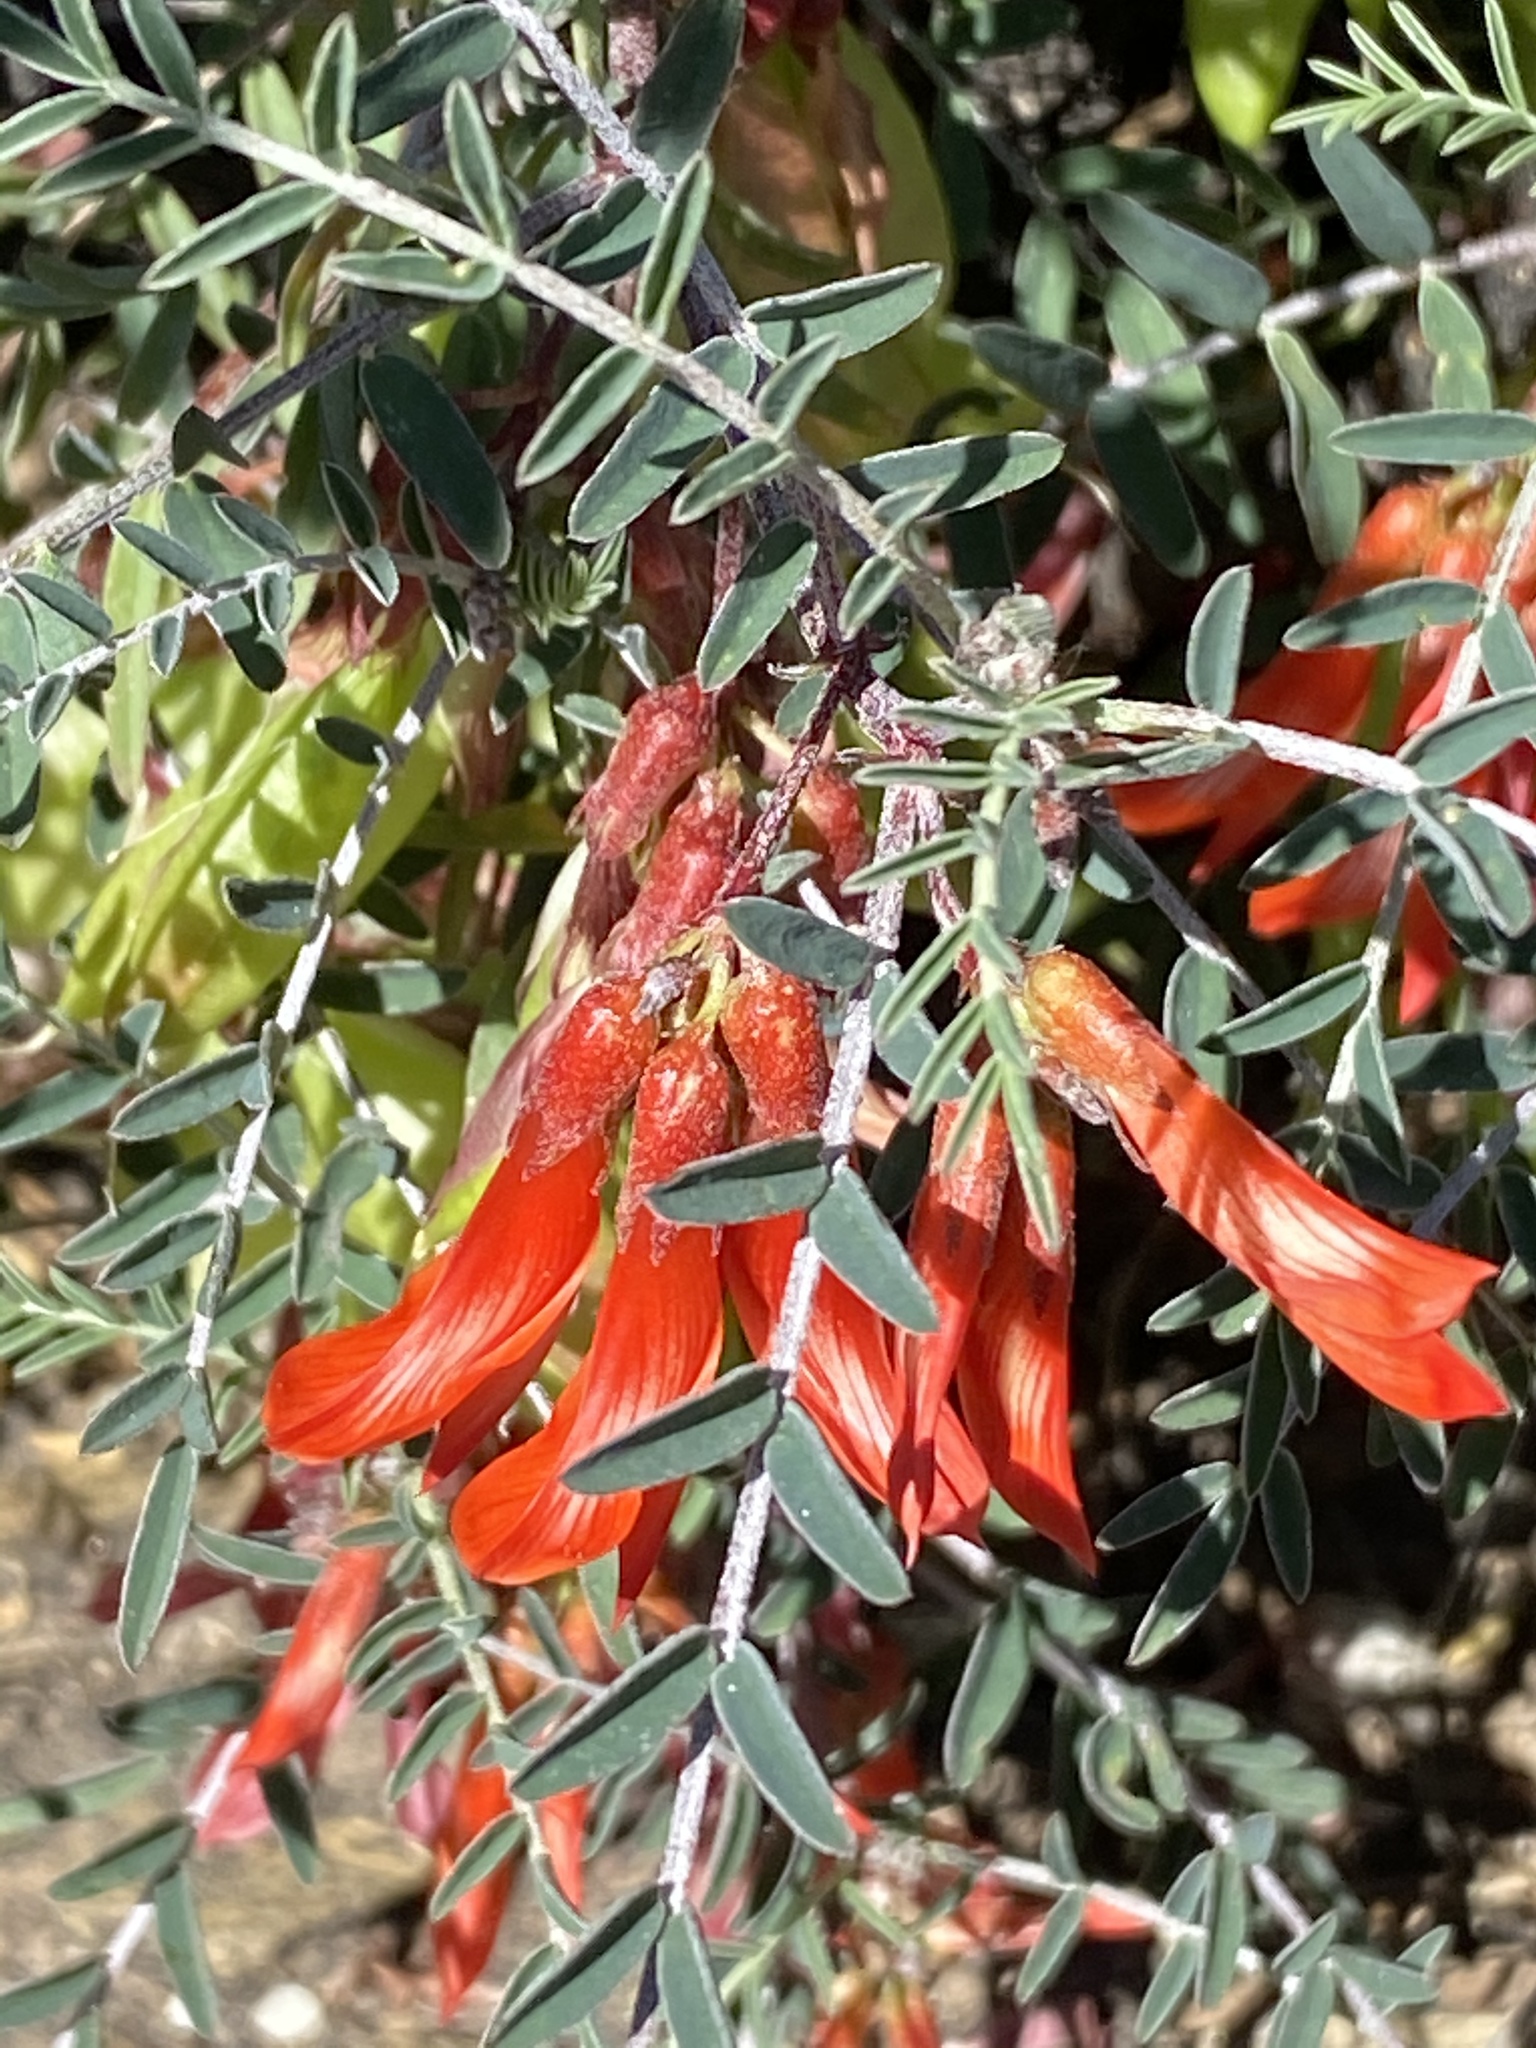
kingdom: Plantae
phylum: Tracheophyta
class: Magnoliopsida
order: Fabales
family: Fabaceae
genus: Lessertia
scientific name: Lessertia frutescens
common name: Balloon-pea
